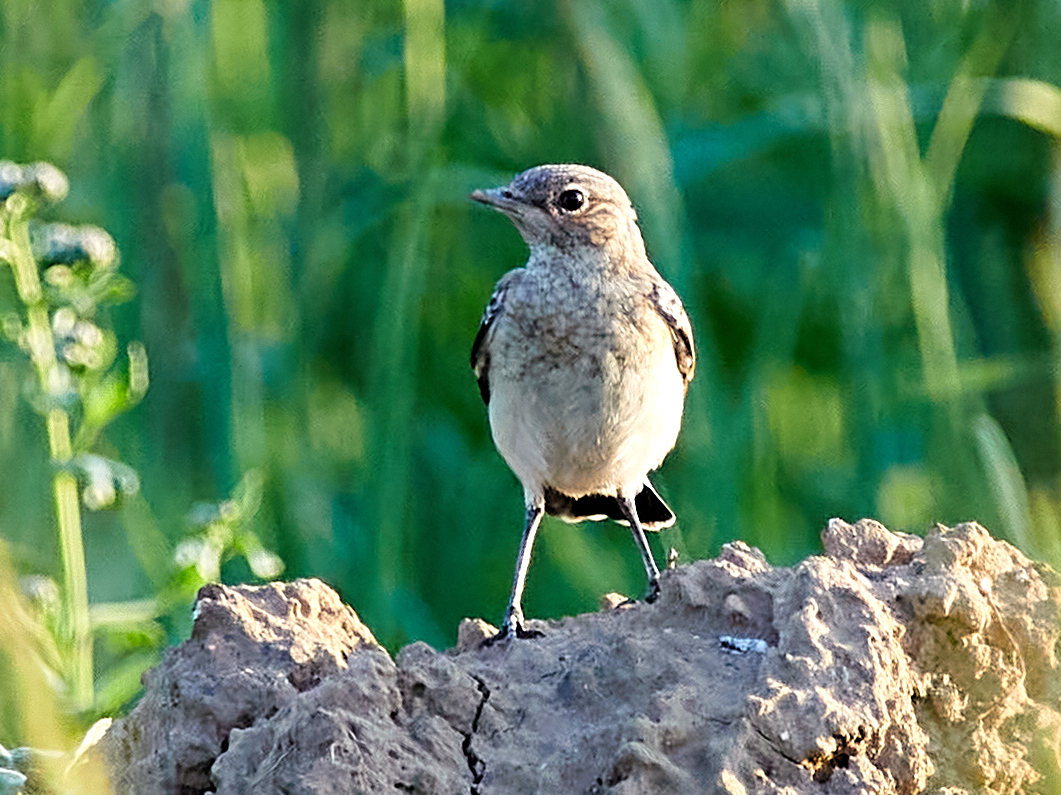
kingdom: Animalia
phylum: Chordata
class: Aves
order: Passeriformes
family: Muscicapidae
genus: Oenanthe
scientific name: Oenanthe oenanthe
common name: Northern wheatear
